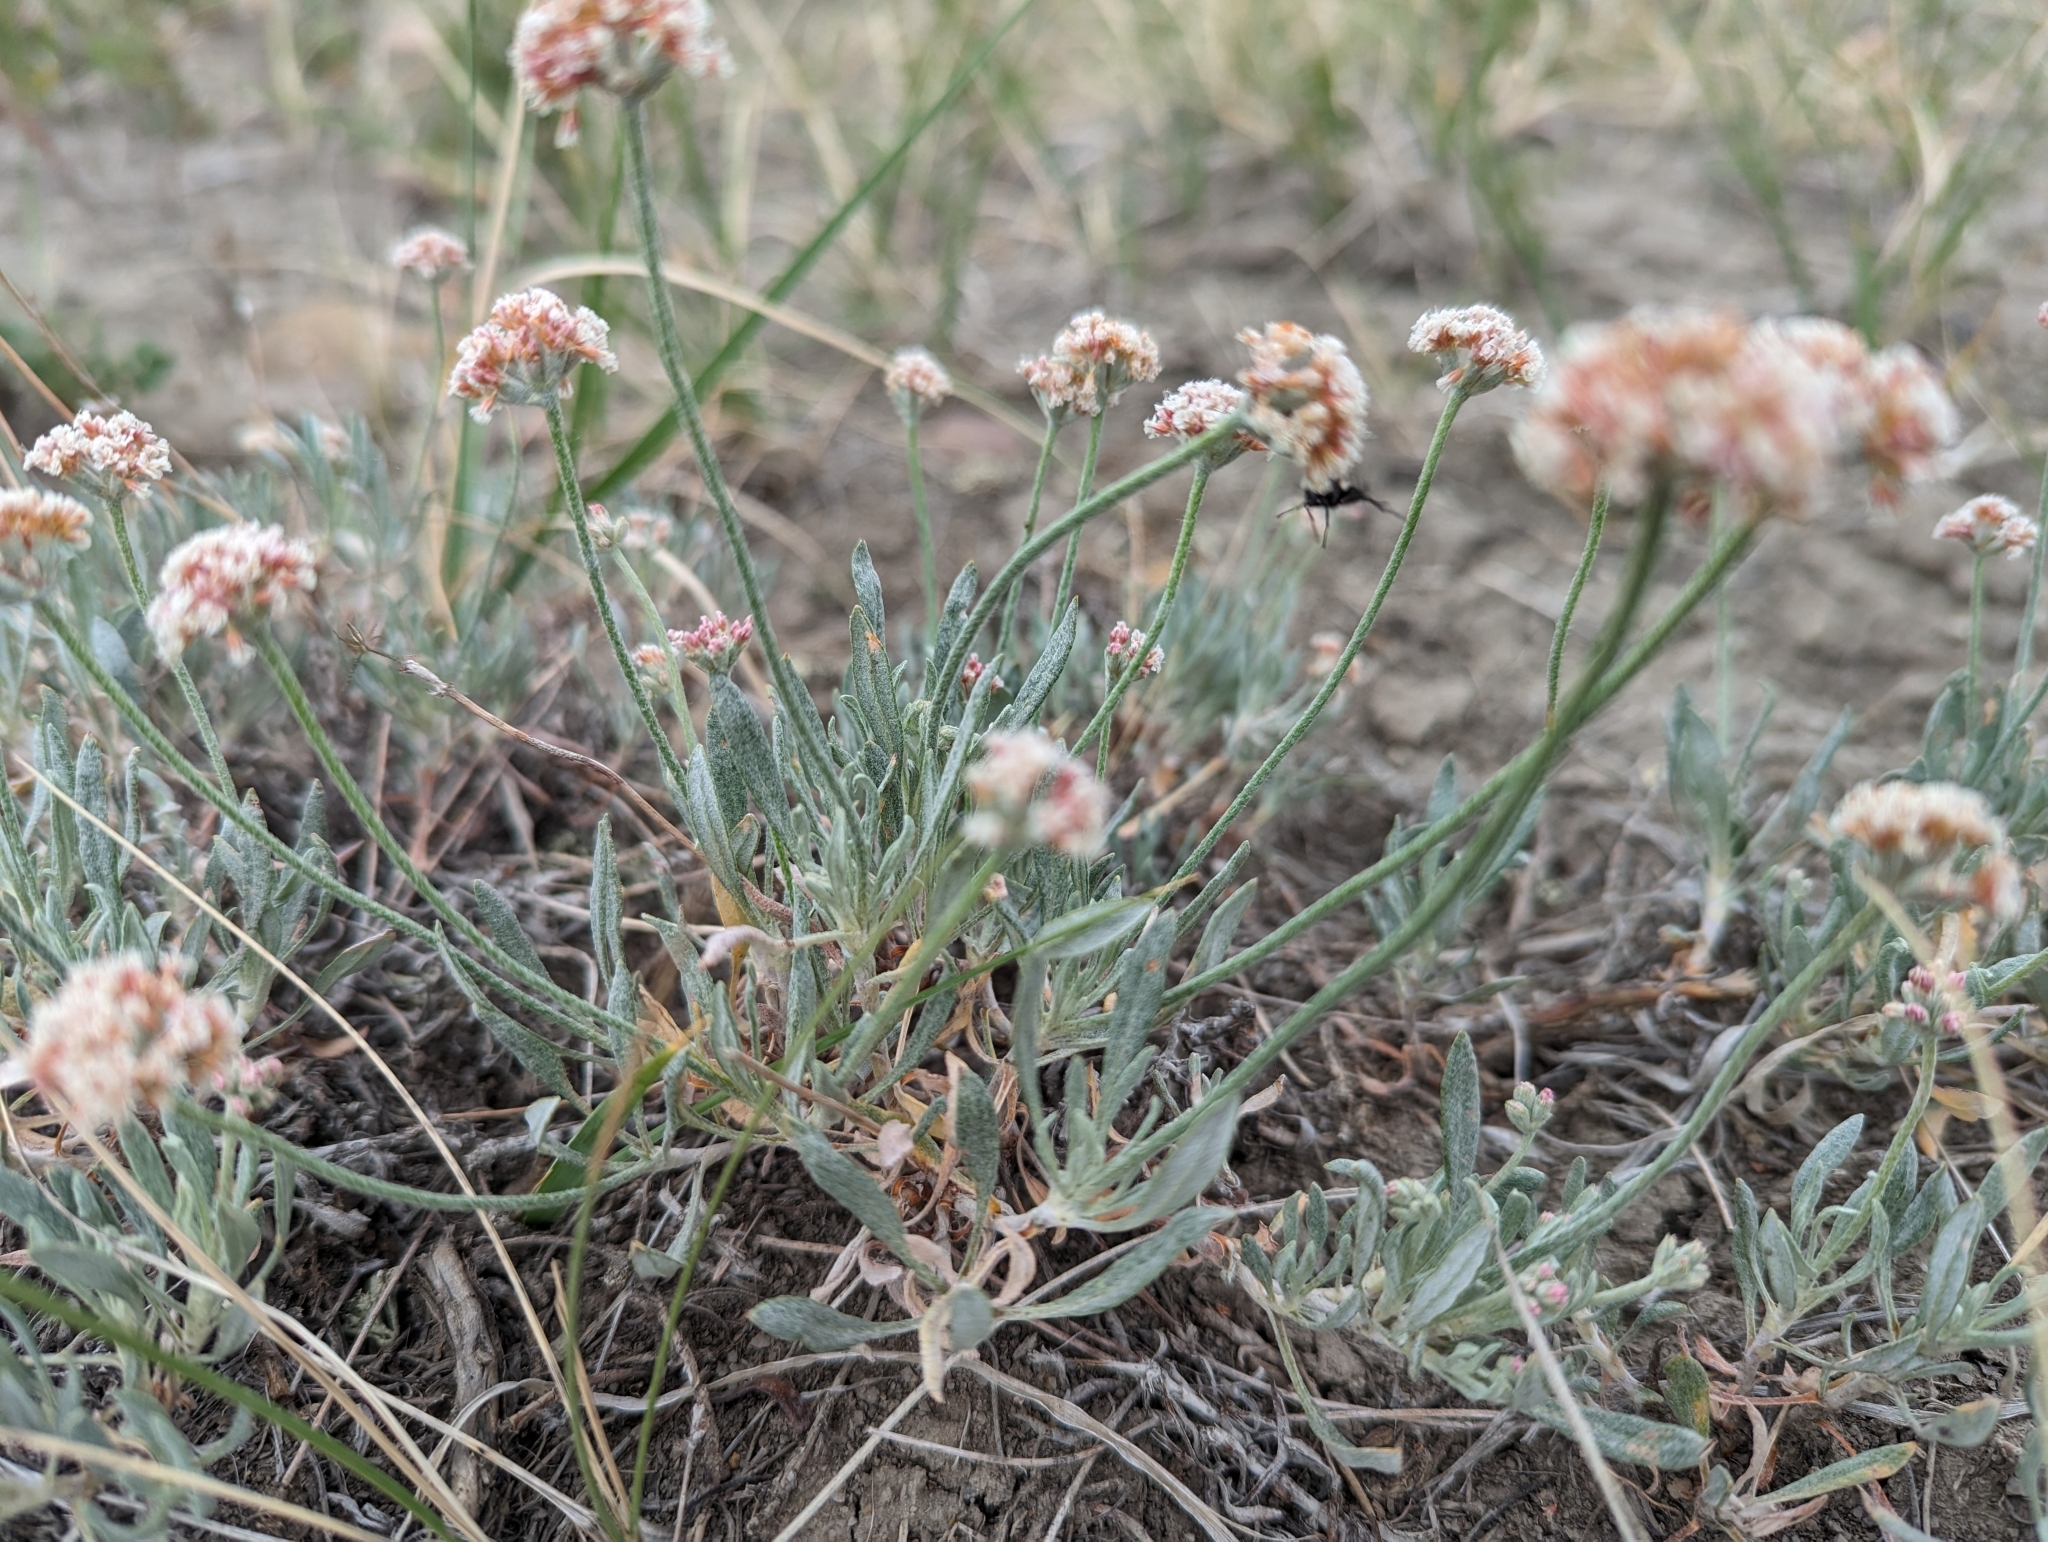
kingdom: Plantae
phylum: Tracheophyta
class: Magnoliopsida
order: Caryophyllales
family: Polygonaceae
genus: Eriogonum
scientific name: Eriogonum pauciflorum
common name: Few-flower wild buckwheat
